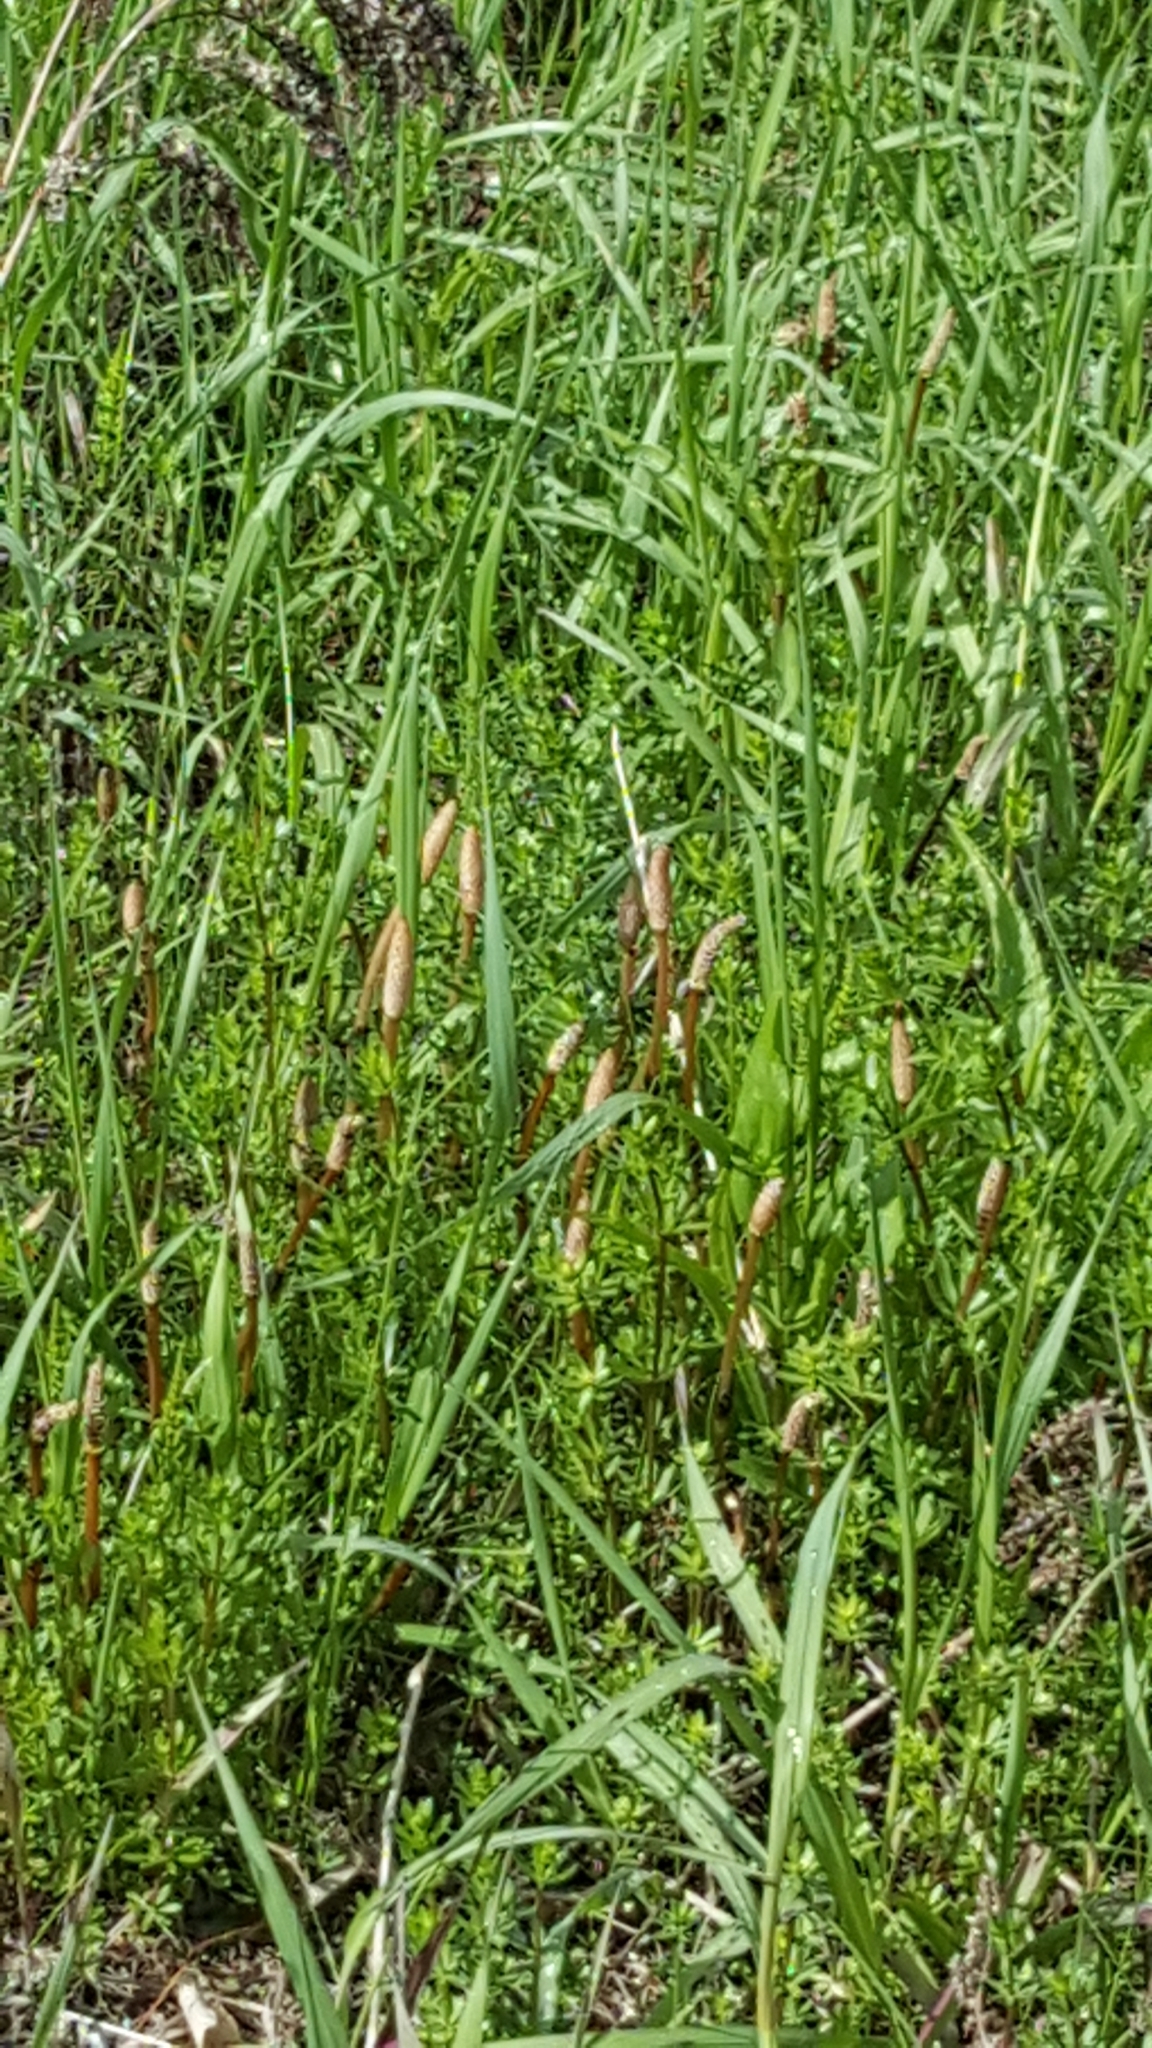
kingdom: Plantae
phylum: Tracheophyta
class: Polypodiopsida
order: Equisetales
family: Equisetaceae
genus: Equisetum
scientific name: Equisetum arvense
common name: Field horsetail
